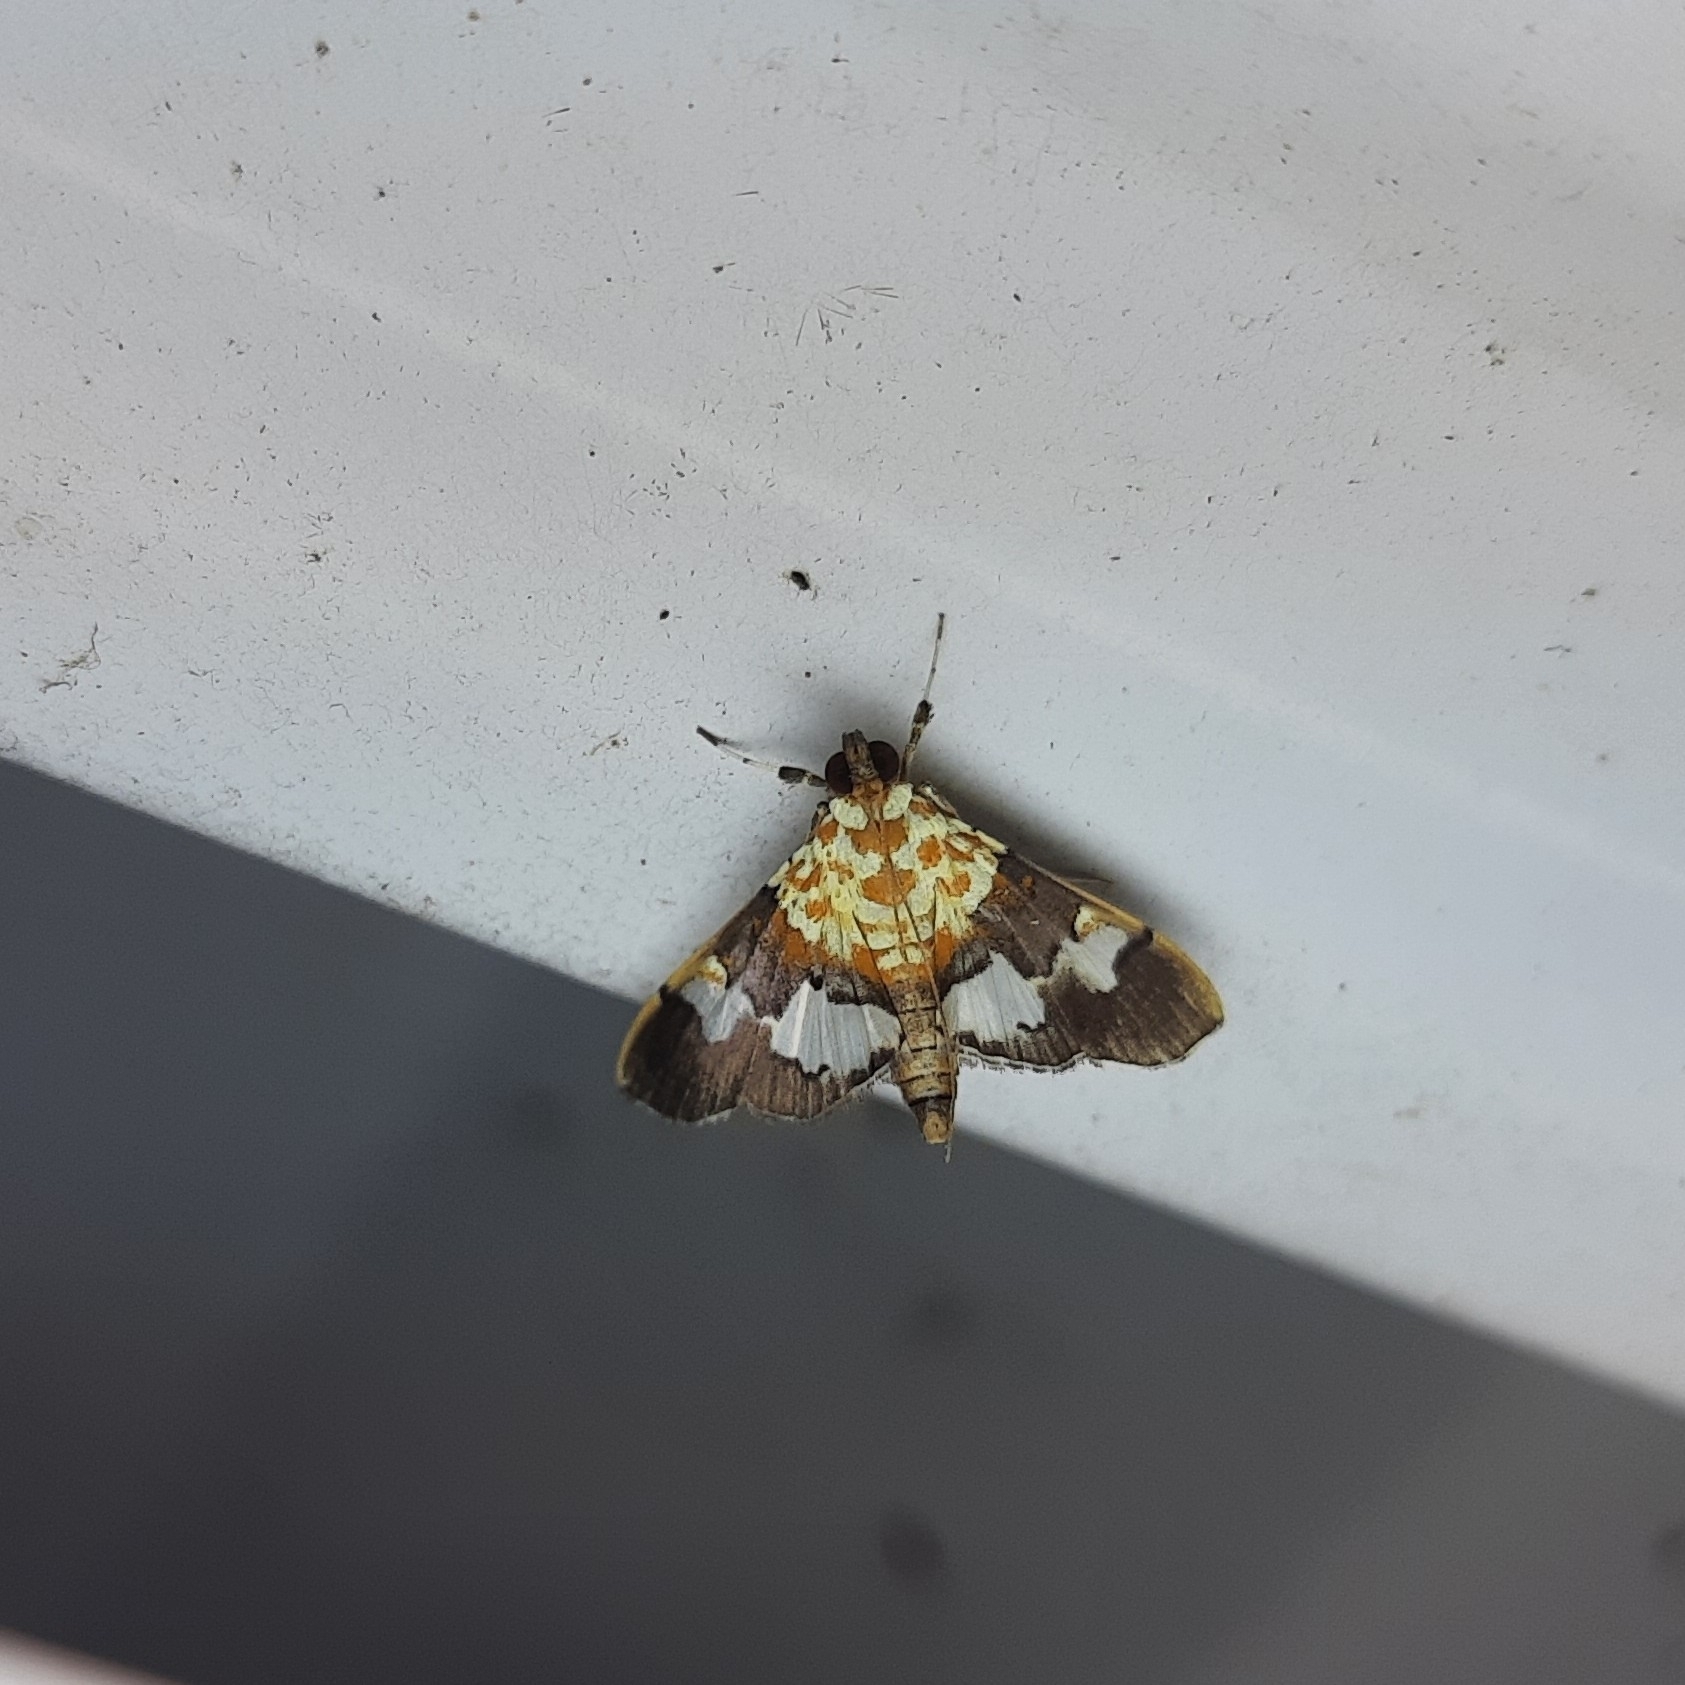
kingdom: Animalia
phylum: Arthropoda
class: Insecta
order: Lepidoptera
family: Crambidae
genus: Aetholix
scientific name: Aetholix flavibasalis
